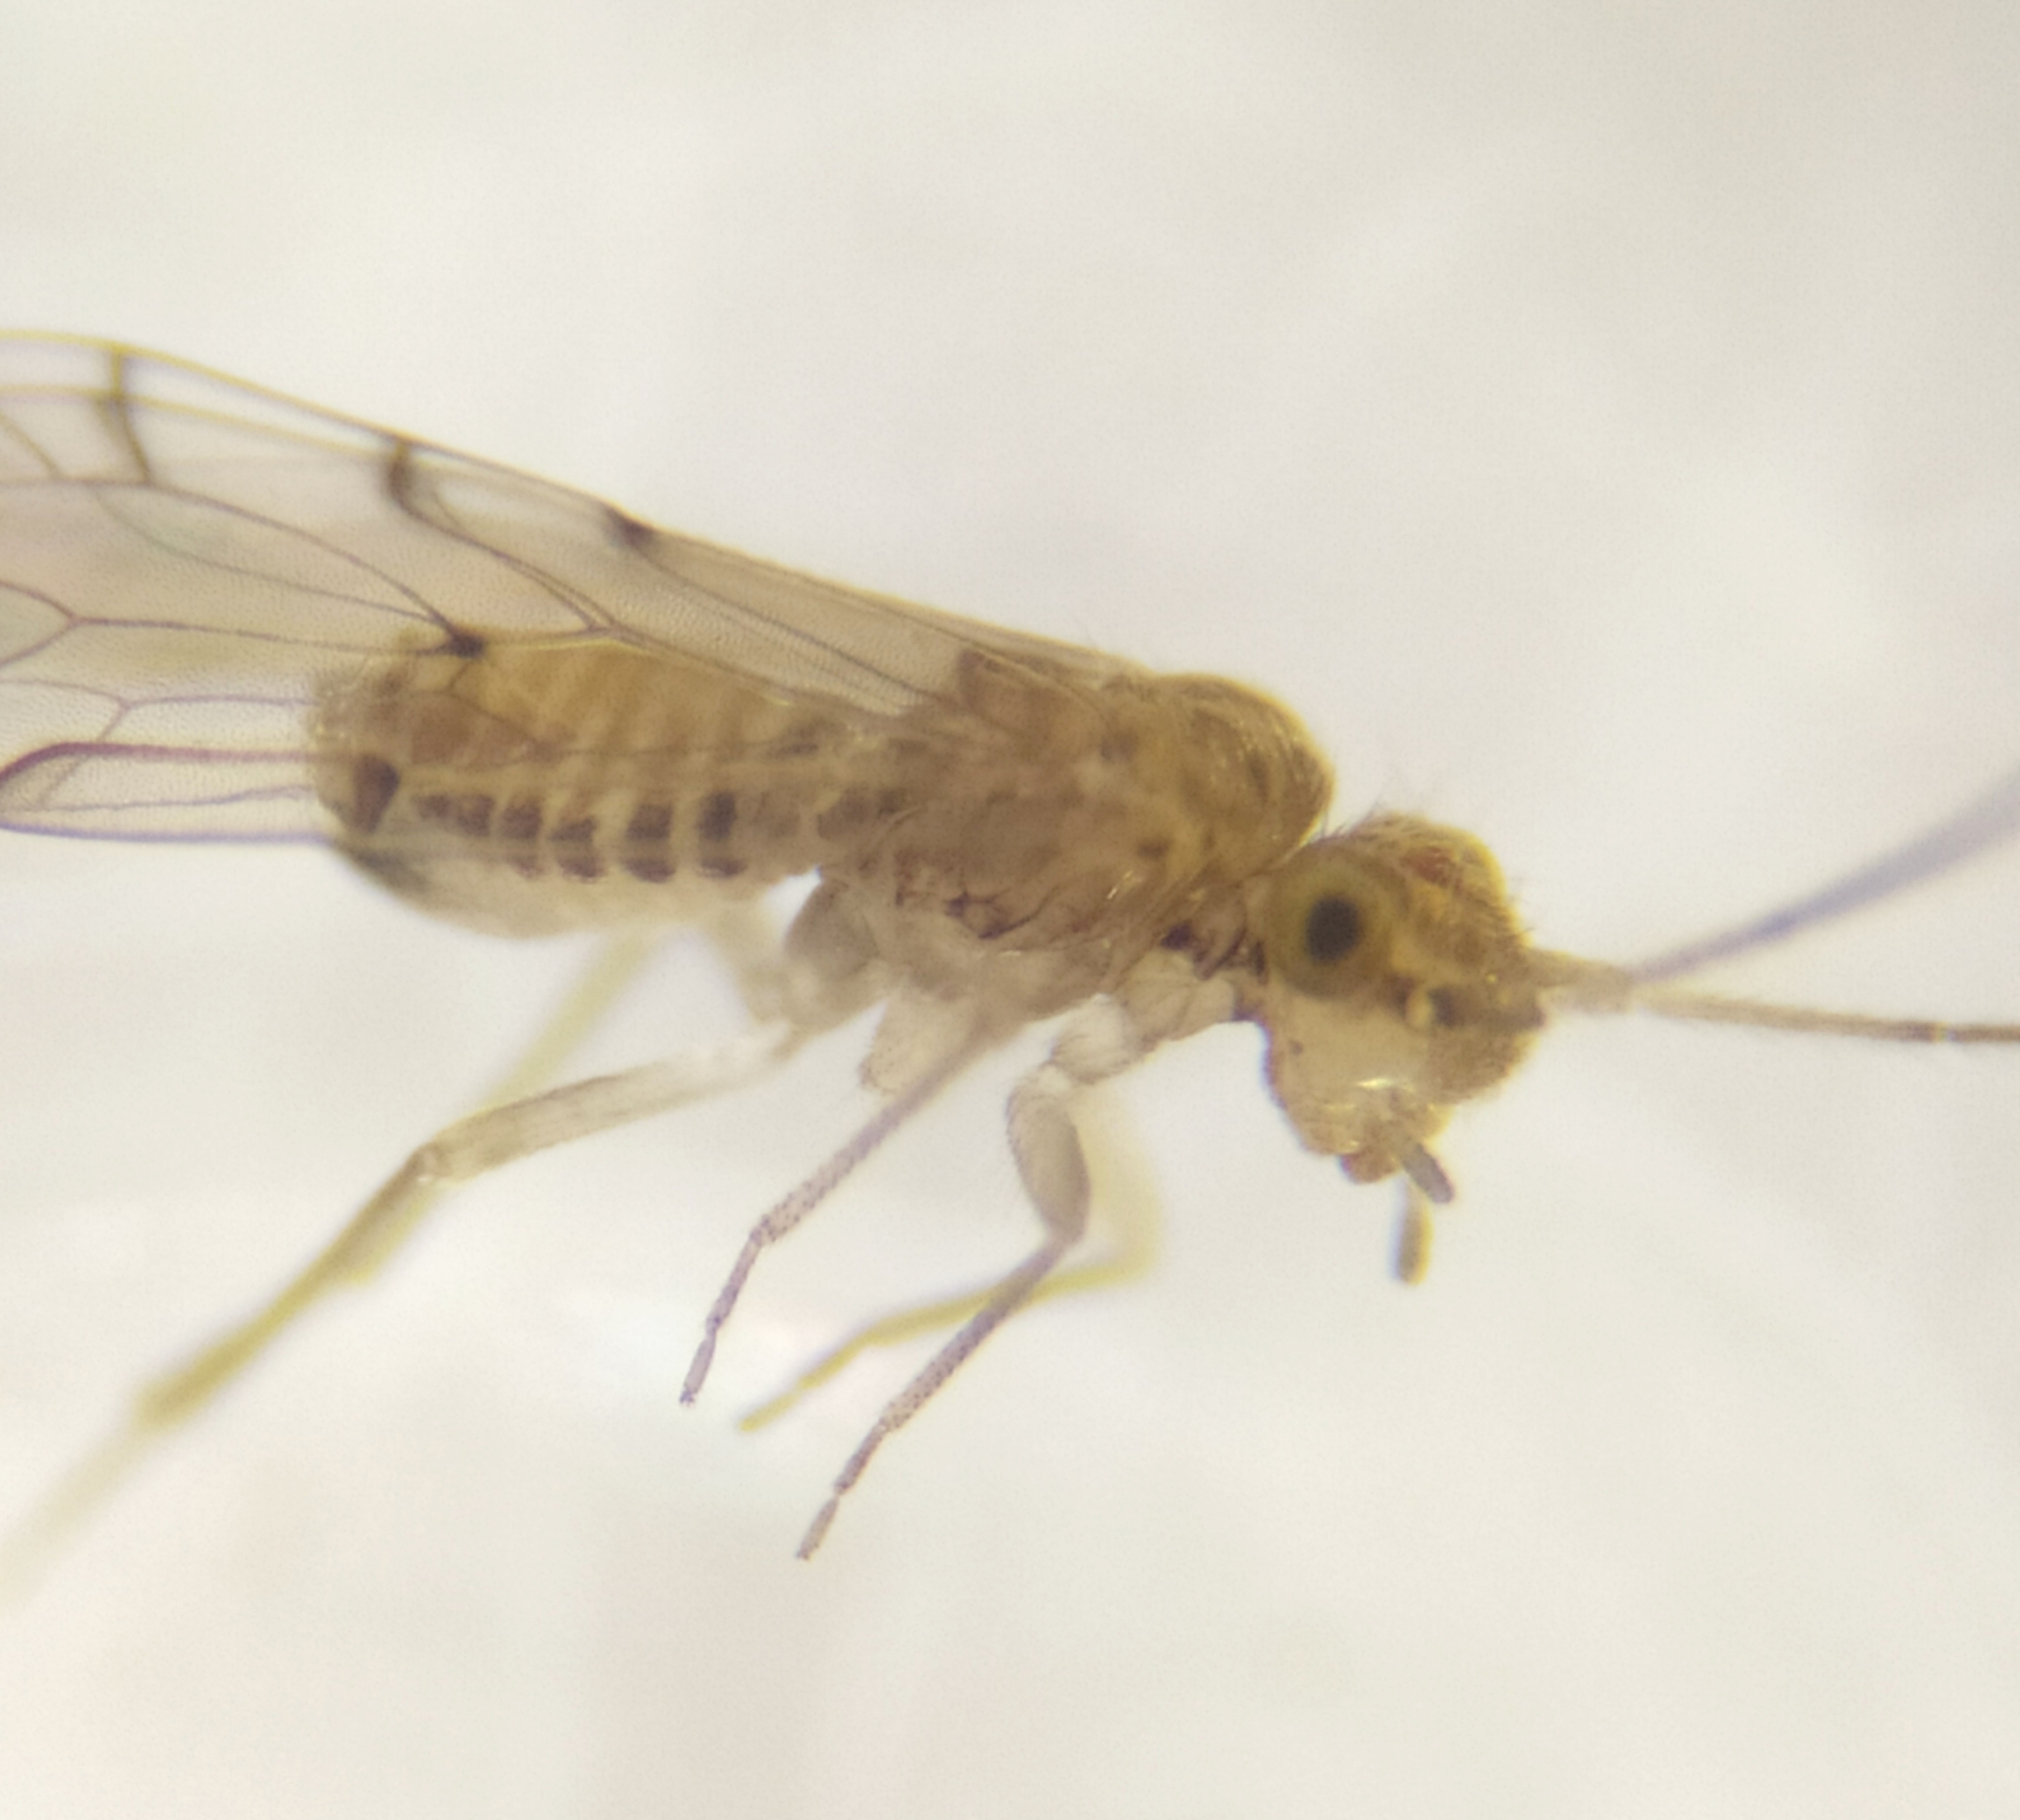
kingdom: Animalia
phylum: Arthropoda
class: Insecta
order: Psocodea
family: Ectopsocidae
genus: Ectopsocus
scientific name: Ectopsocus briggsi
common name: Ectopsocid
